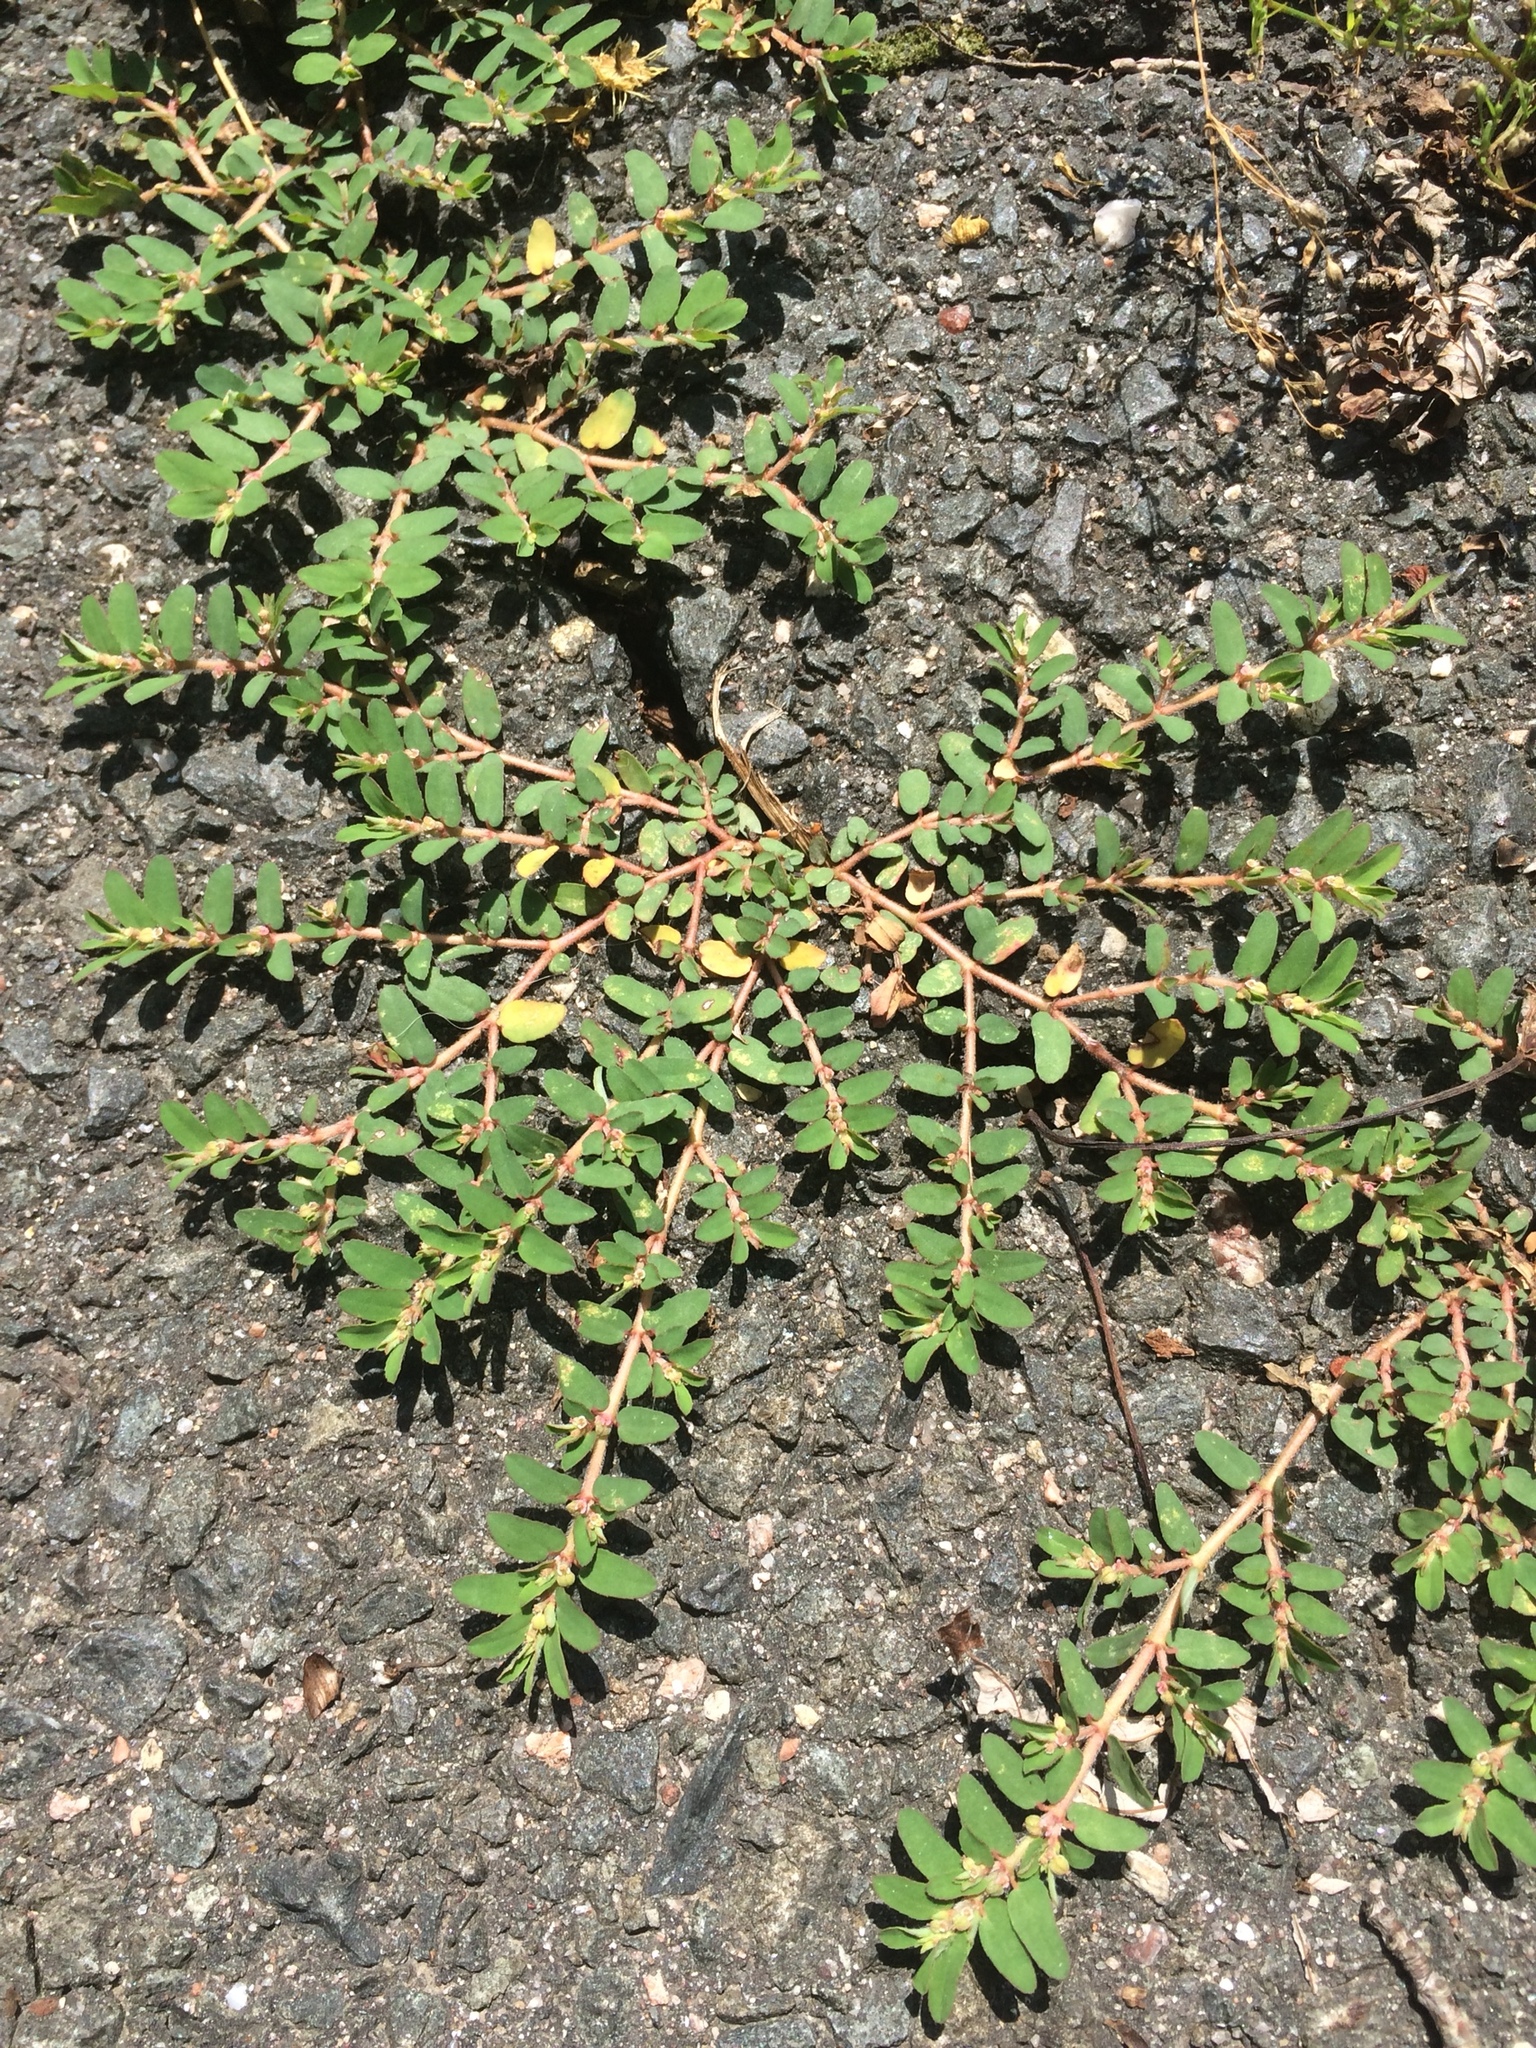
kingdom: Plantae
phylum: Tracheophyta
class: Magnoliopsida
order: Malpighiales
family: Euphorbiaceae
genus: Euphorbia
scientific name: Euphorbia maculata
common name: Spotted spurge
